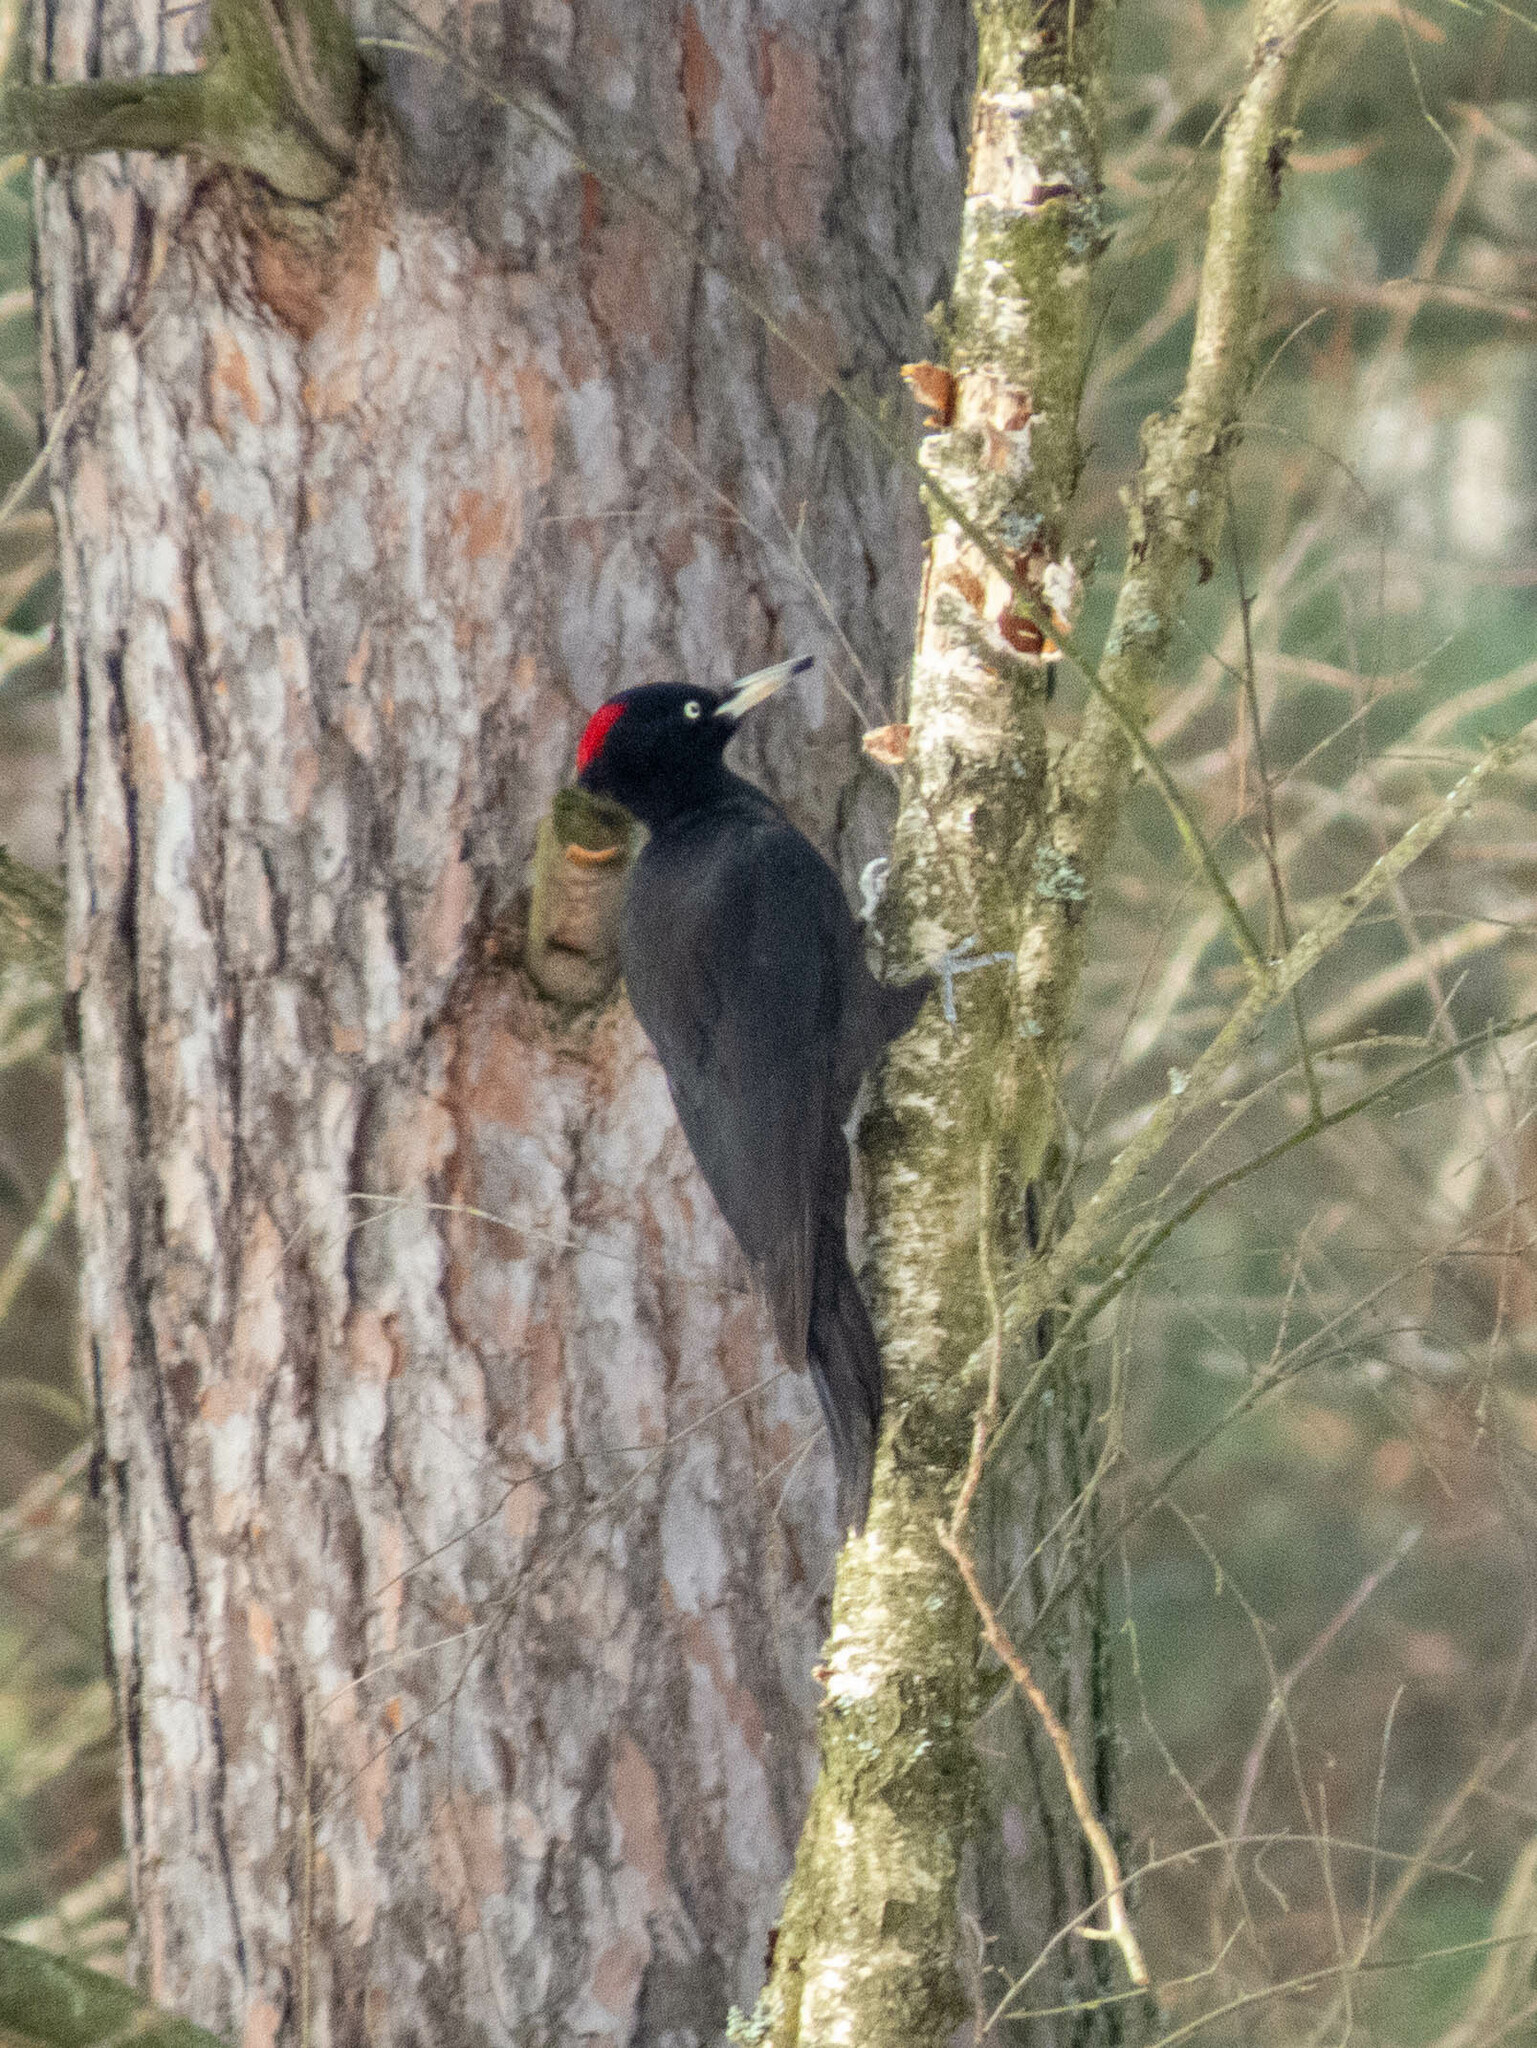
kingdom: Animalia
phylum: Chordata
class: Aves
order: Piciformes
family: Picidae
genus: Dryocopus
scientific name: Dryocopus martius
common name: Black woodpecker
